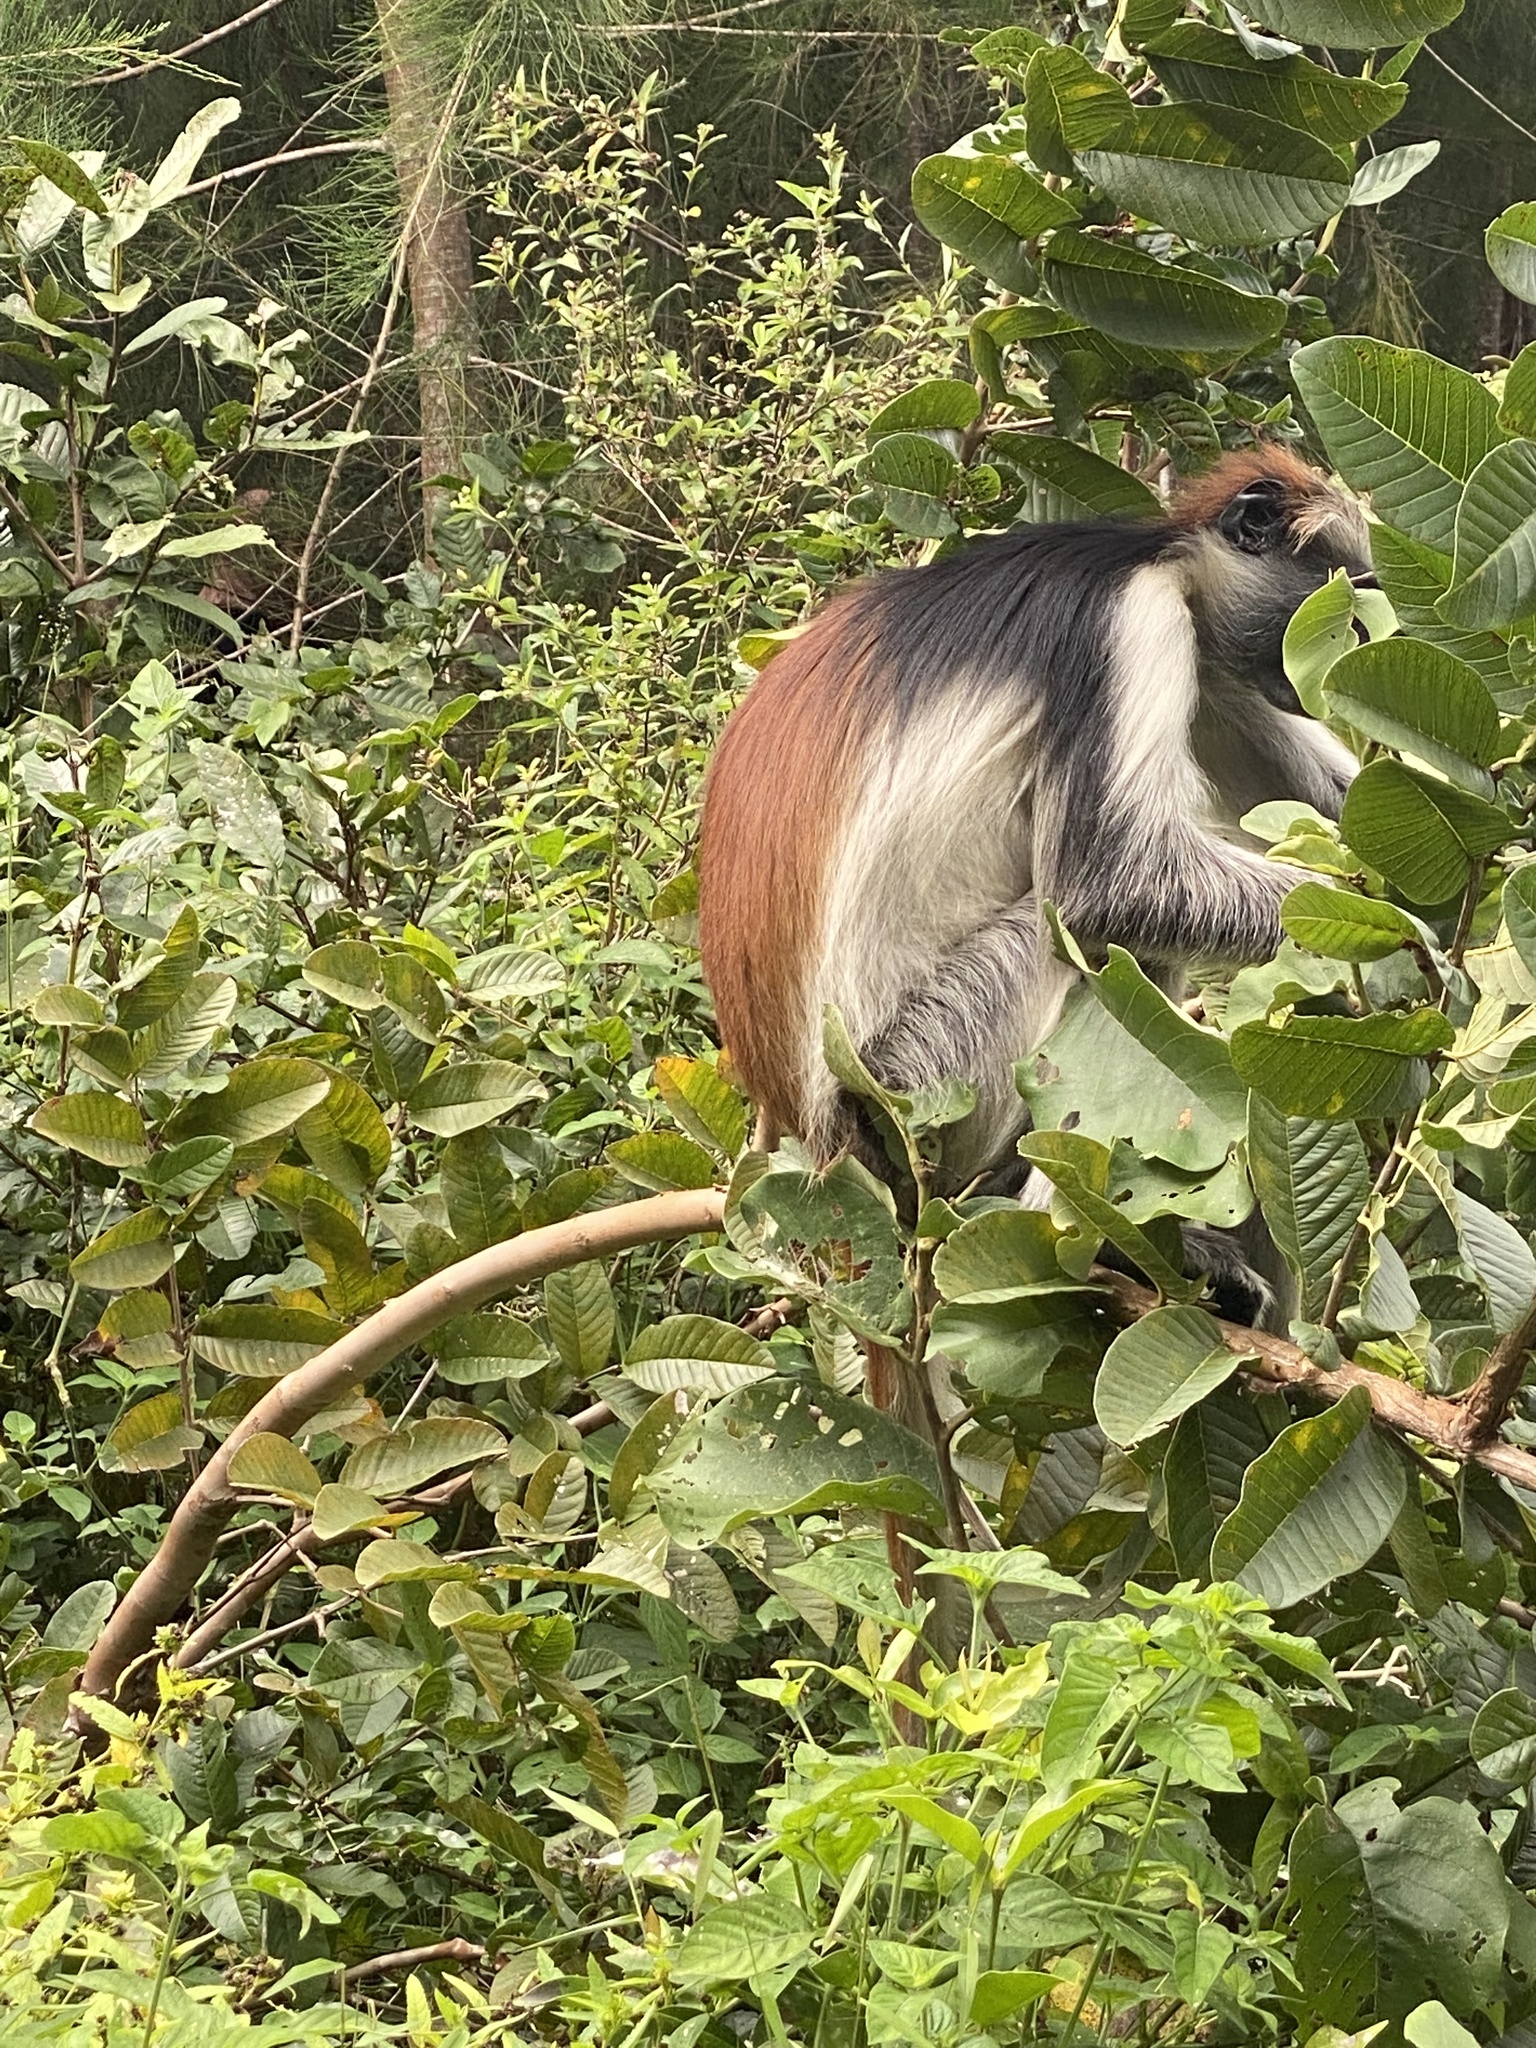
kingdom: Animalia
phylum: Chordata
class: Mammalia
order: Primates
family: Cercopithecidae
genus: Piliocolobus
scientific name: Piliocolobus kirkii
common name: Zanzibar red colobus
